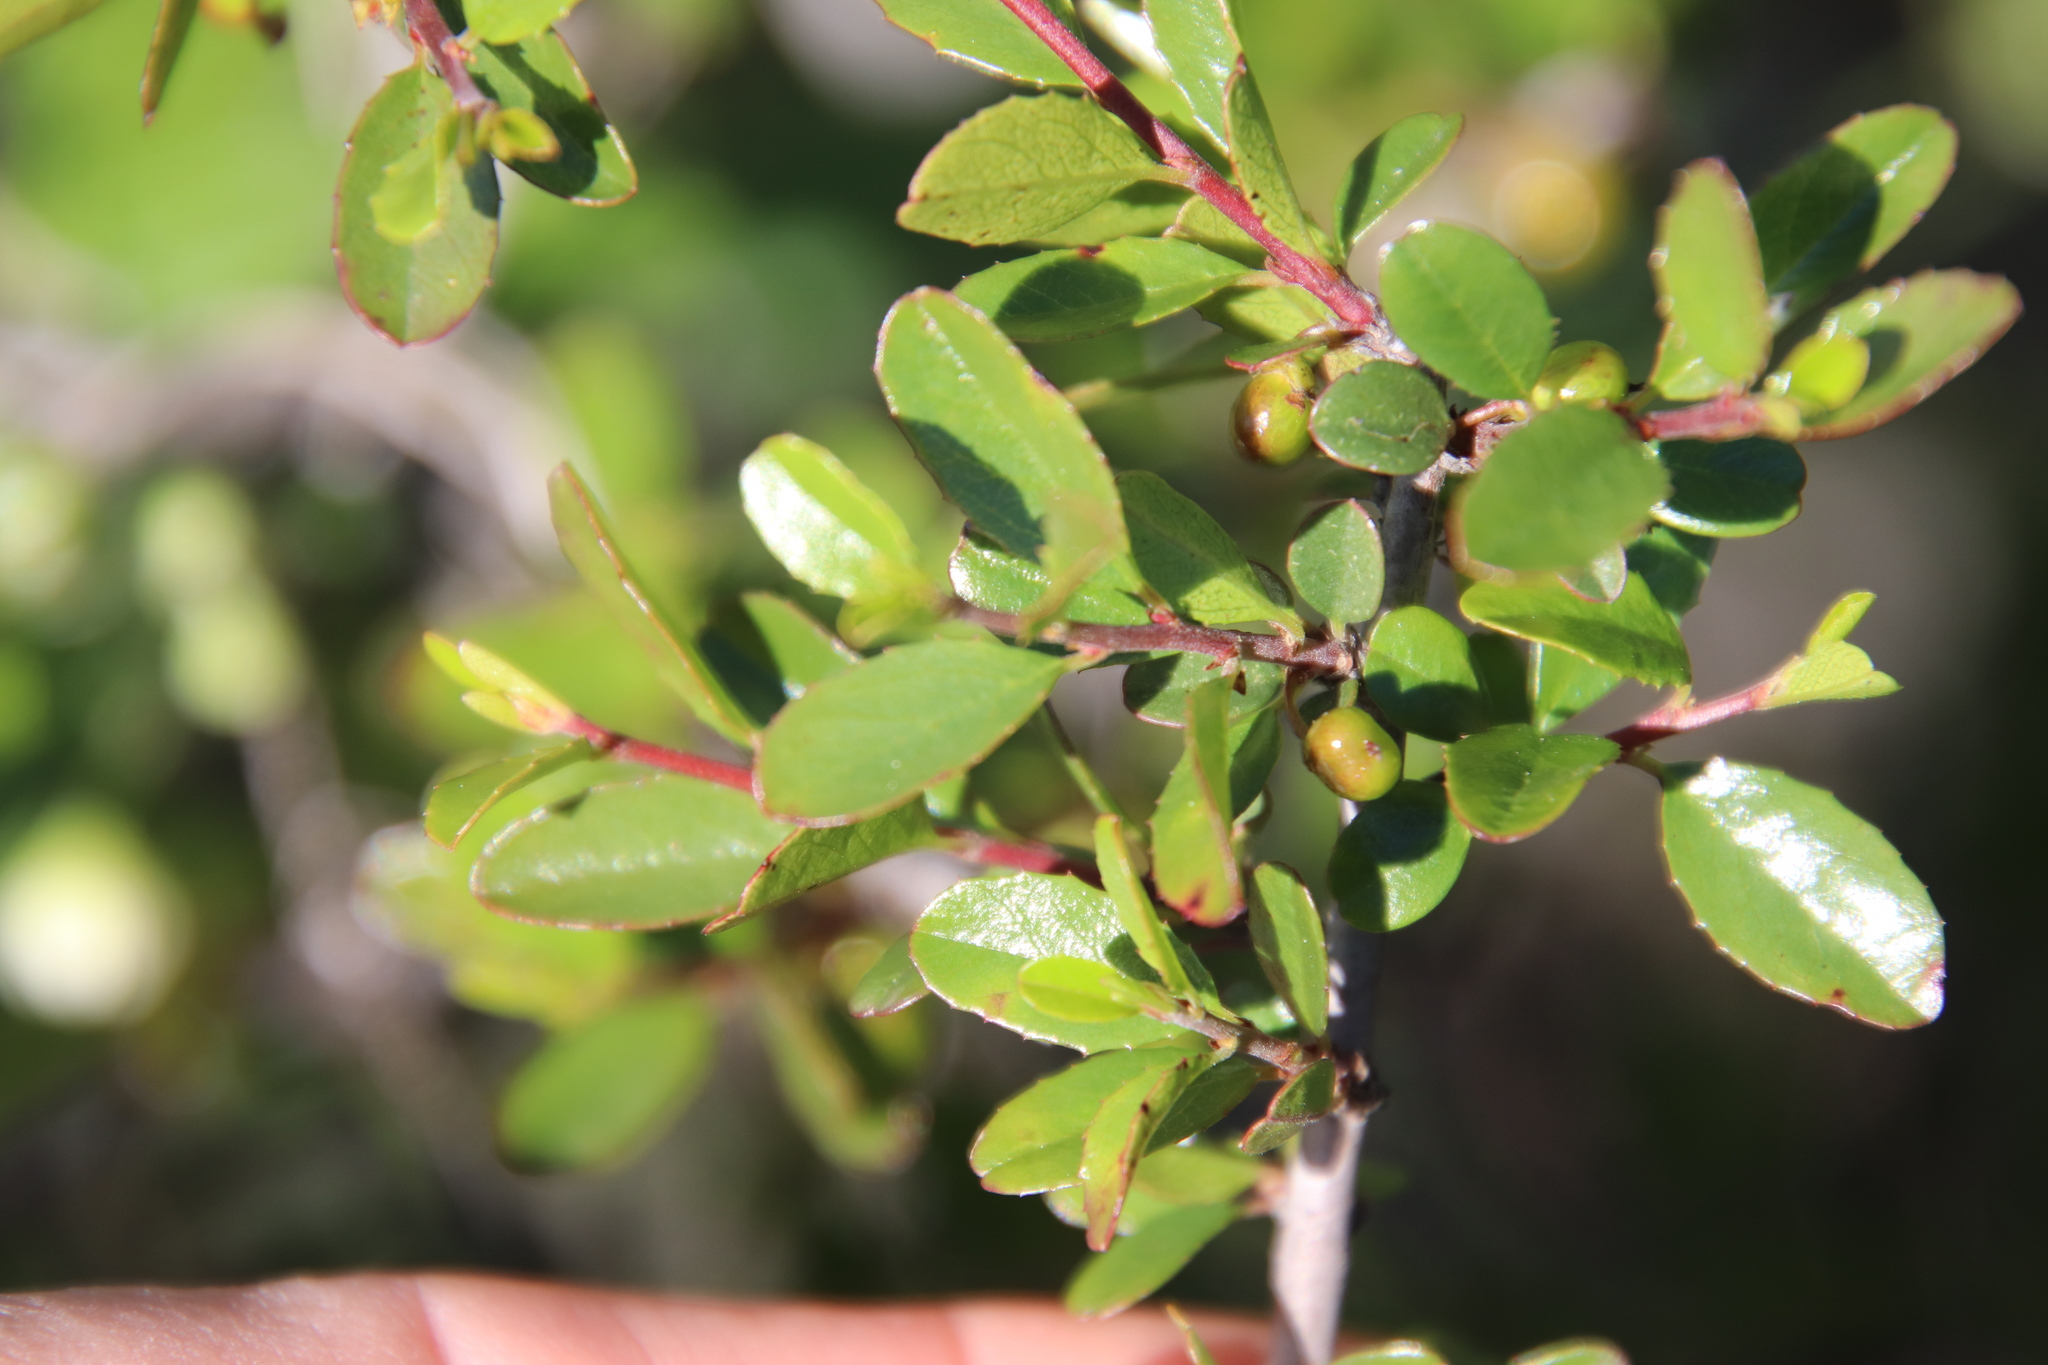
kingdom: Plantae
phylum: Tracheophyta
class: Magnoliopsida
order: Rosales
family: Rhamnaceae
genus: Endotropis
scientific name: Endotropis crocea
